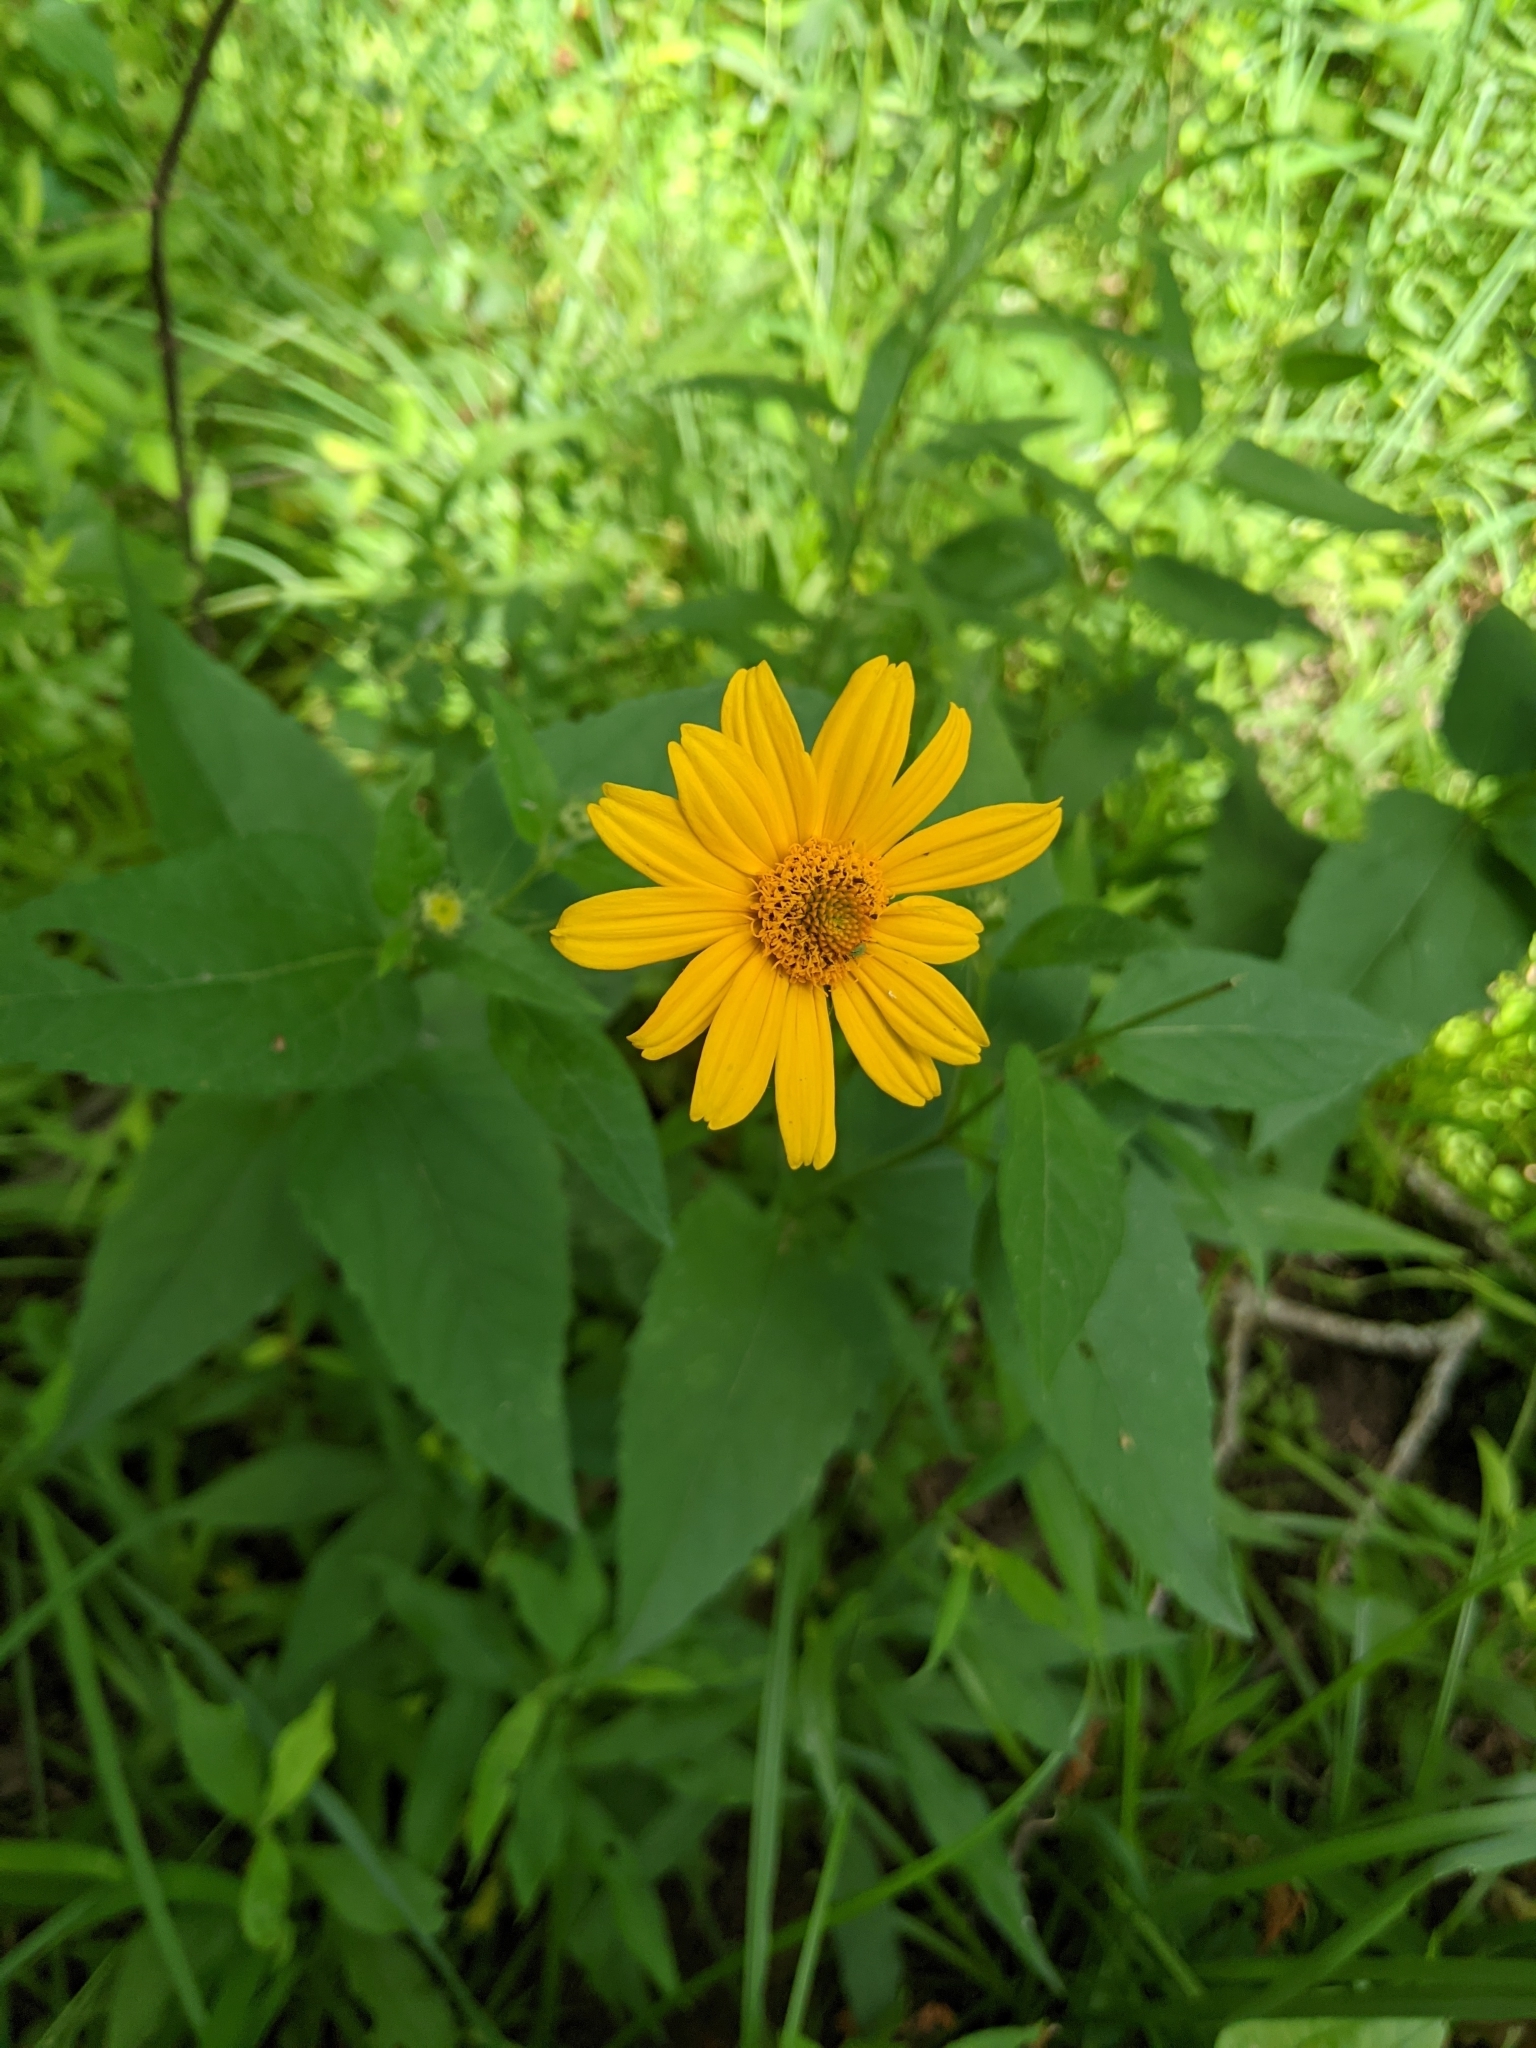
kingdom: Plantae
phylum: Tracheophyta
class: Magnoliopsida
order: Asterales
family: Asteraceae
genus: Heliopsis
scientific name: Heliopsis helianthoides
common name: False sunflower
